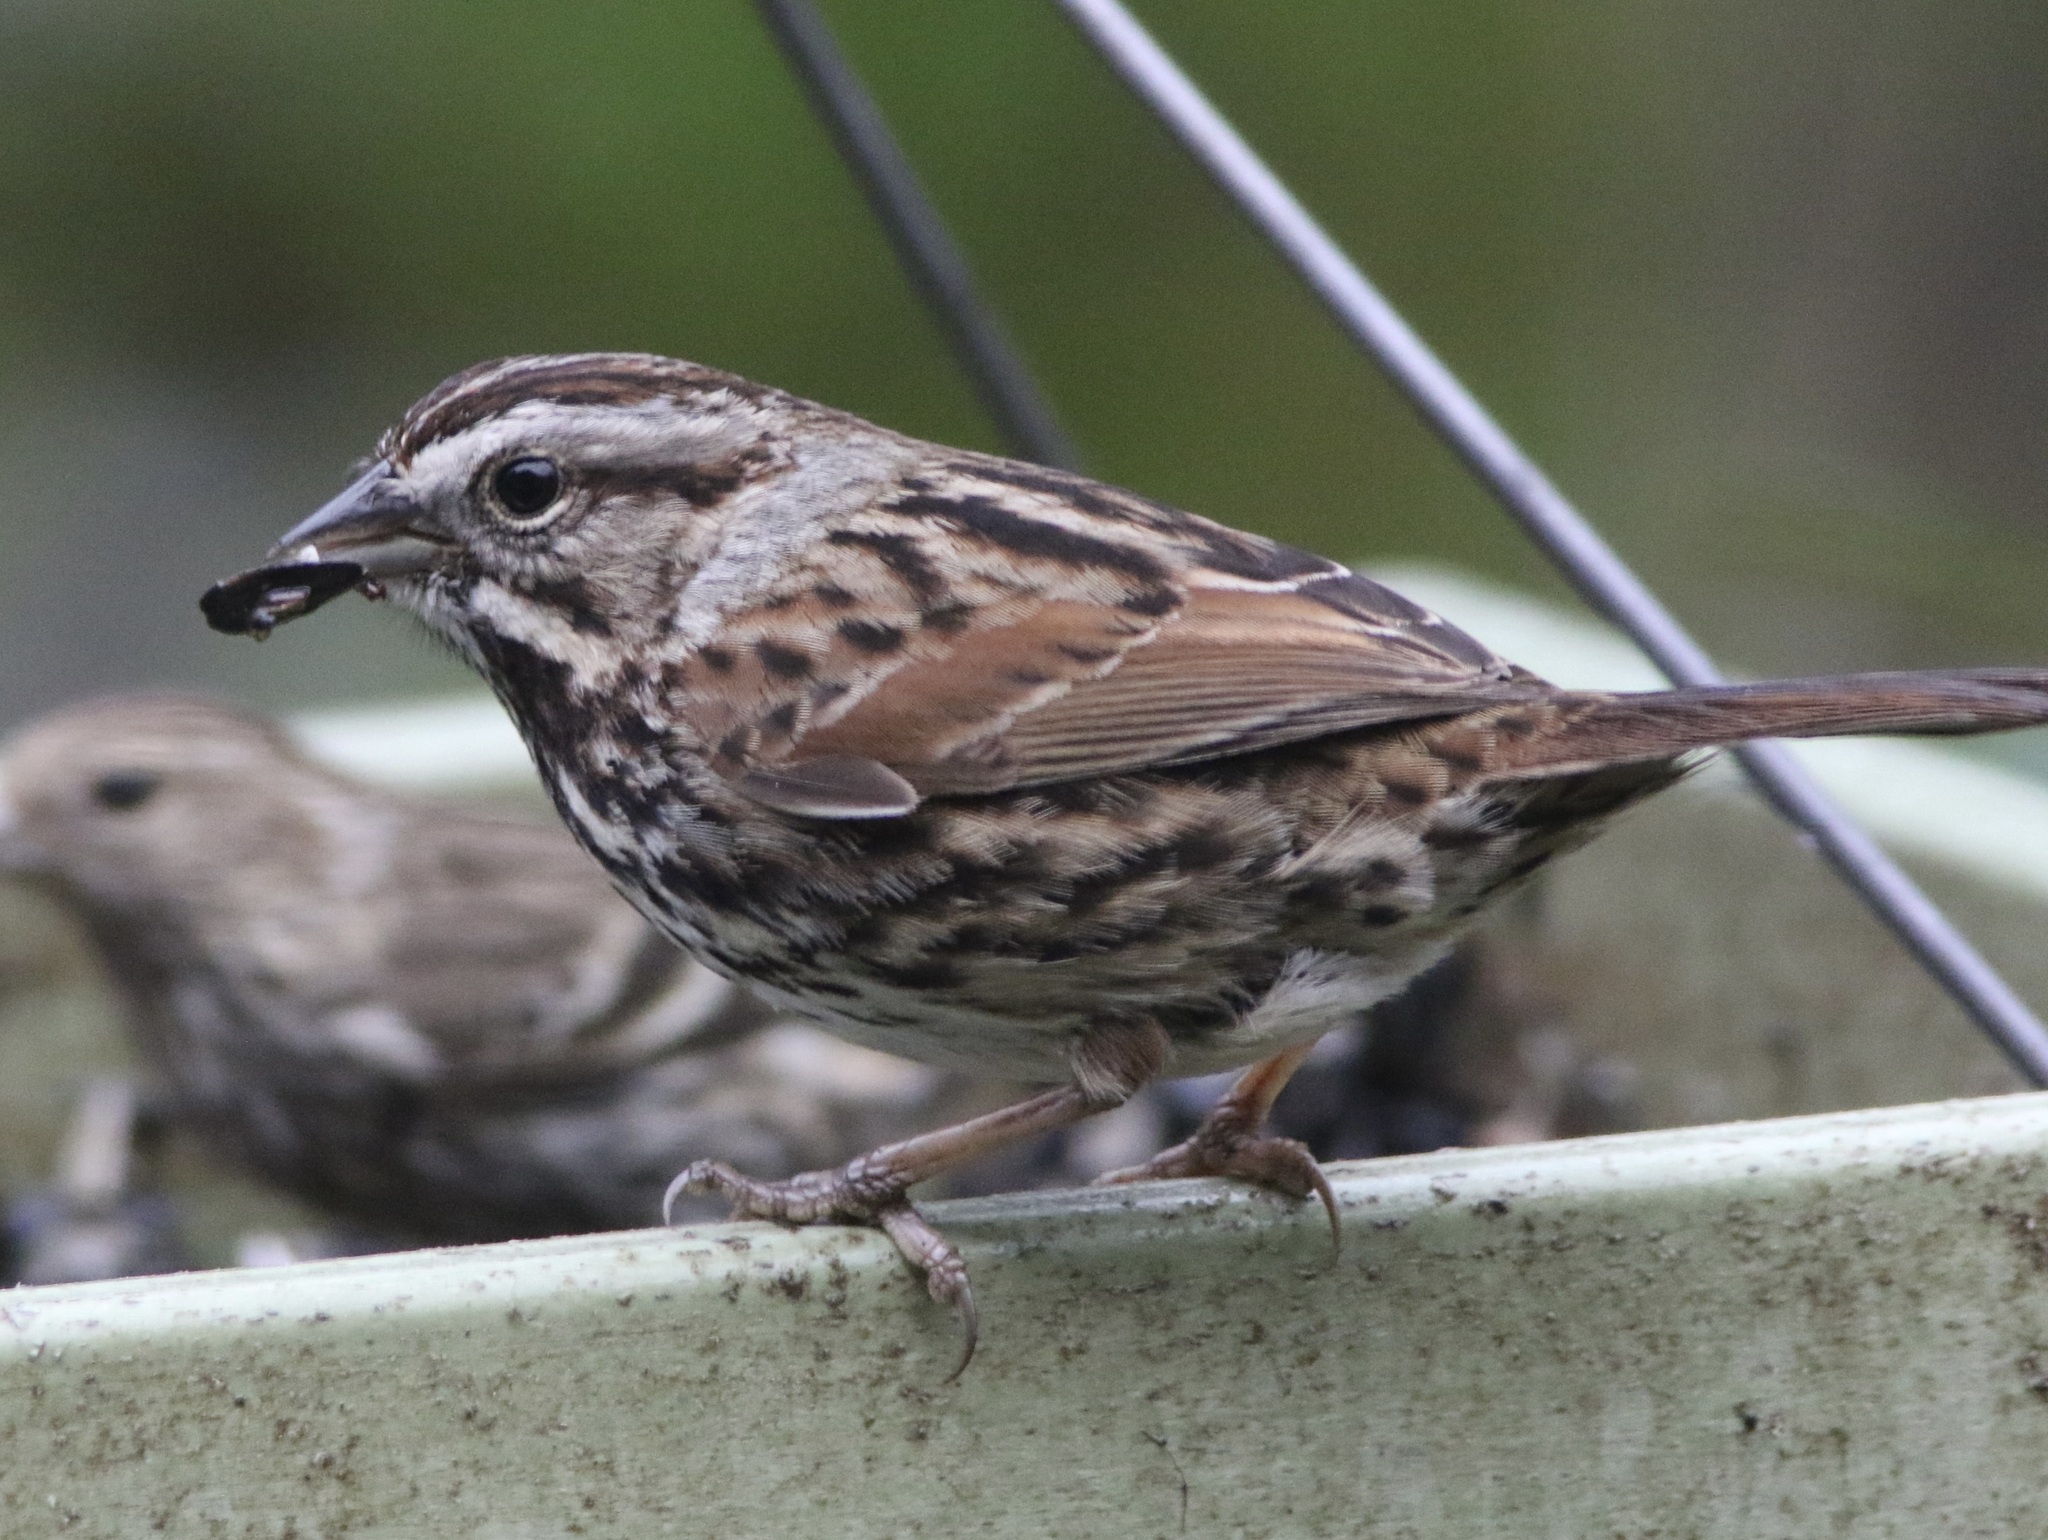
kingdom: Animalia
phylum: Chordata
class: Aves
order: Passeriformes
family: Passerellidae
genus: Melospiza
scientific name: Melospiza melodia
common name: Song sparrow
